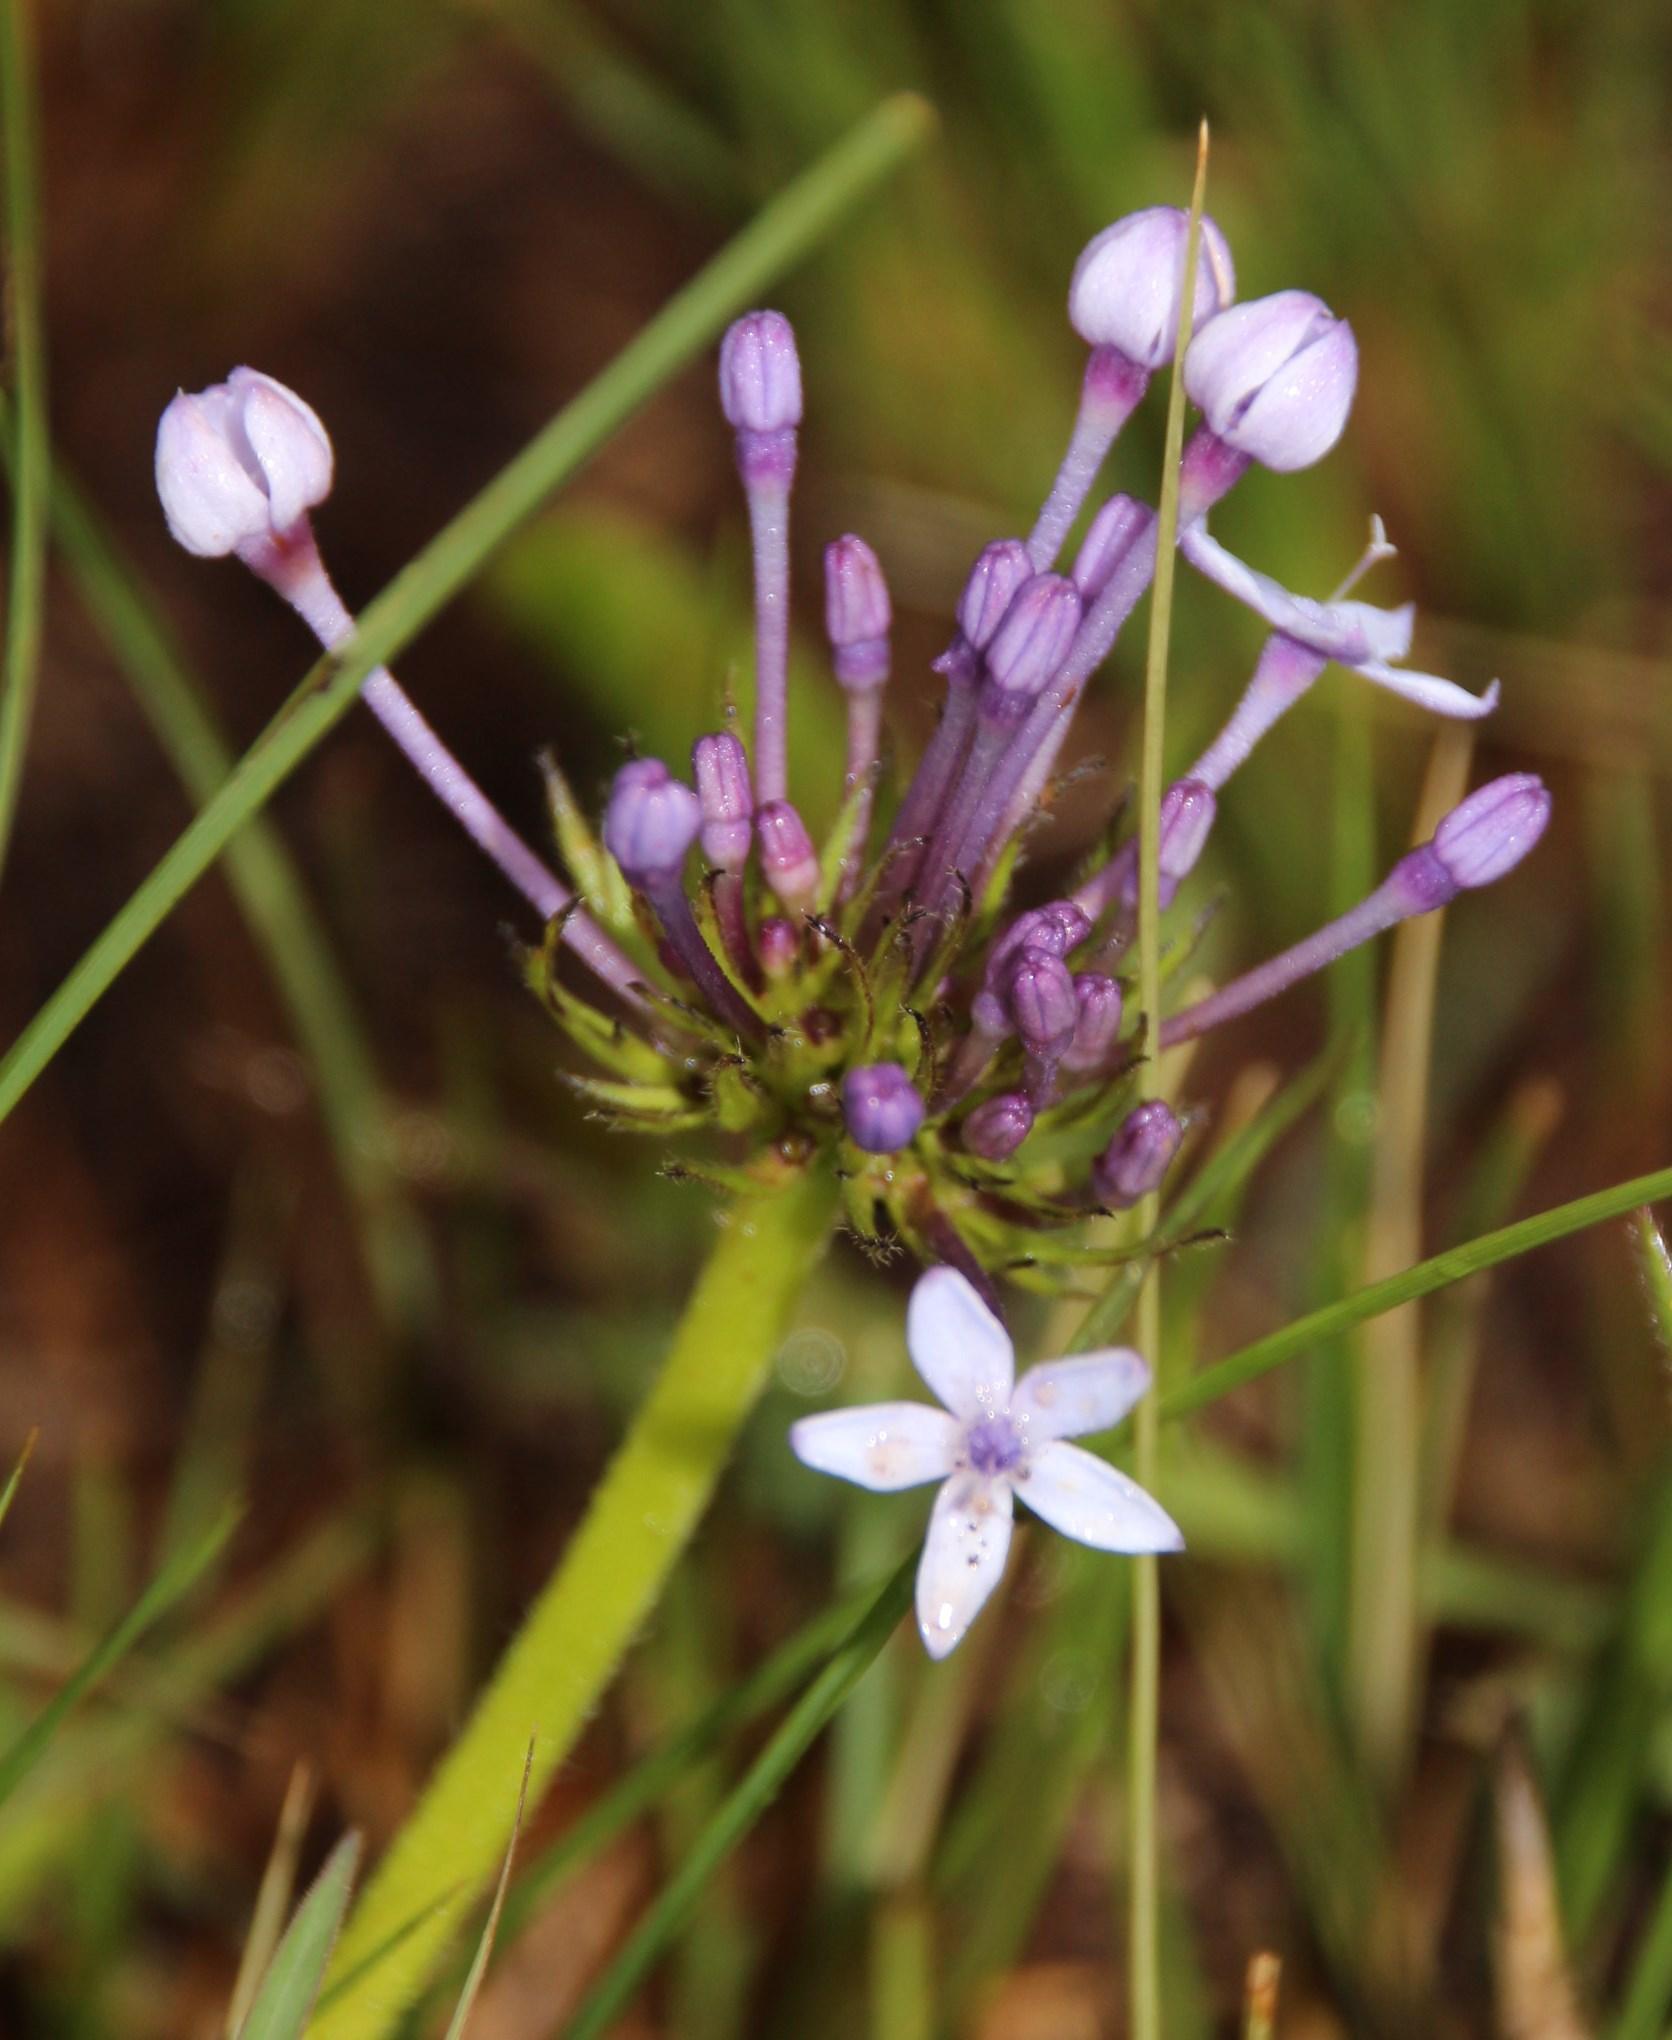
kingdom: Plantae
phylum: Tracheophyta
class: Magnoliopsida
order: Gentianales
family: Rubiaceae
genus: Pentanisia
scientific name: Pentanisia prunelloides
